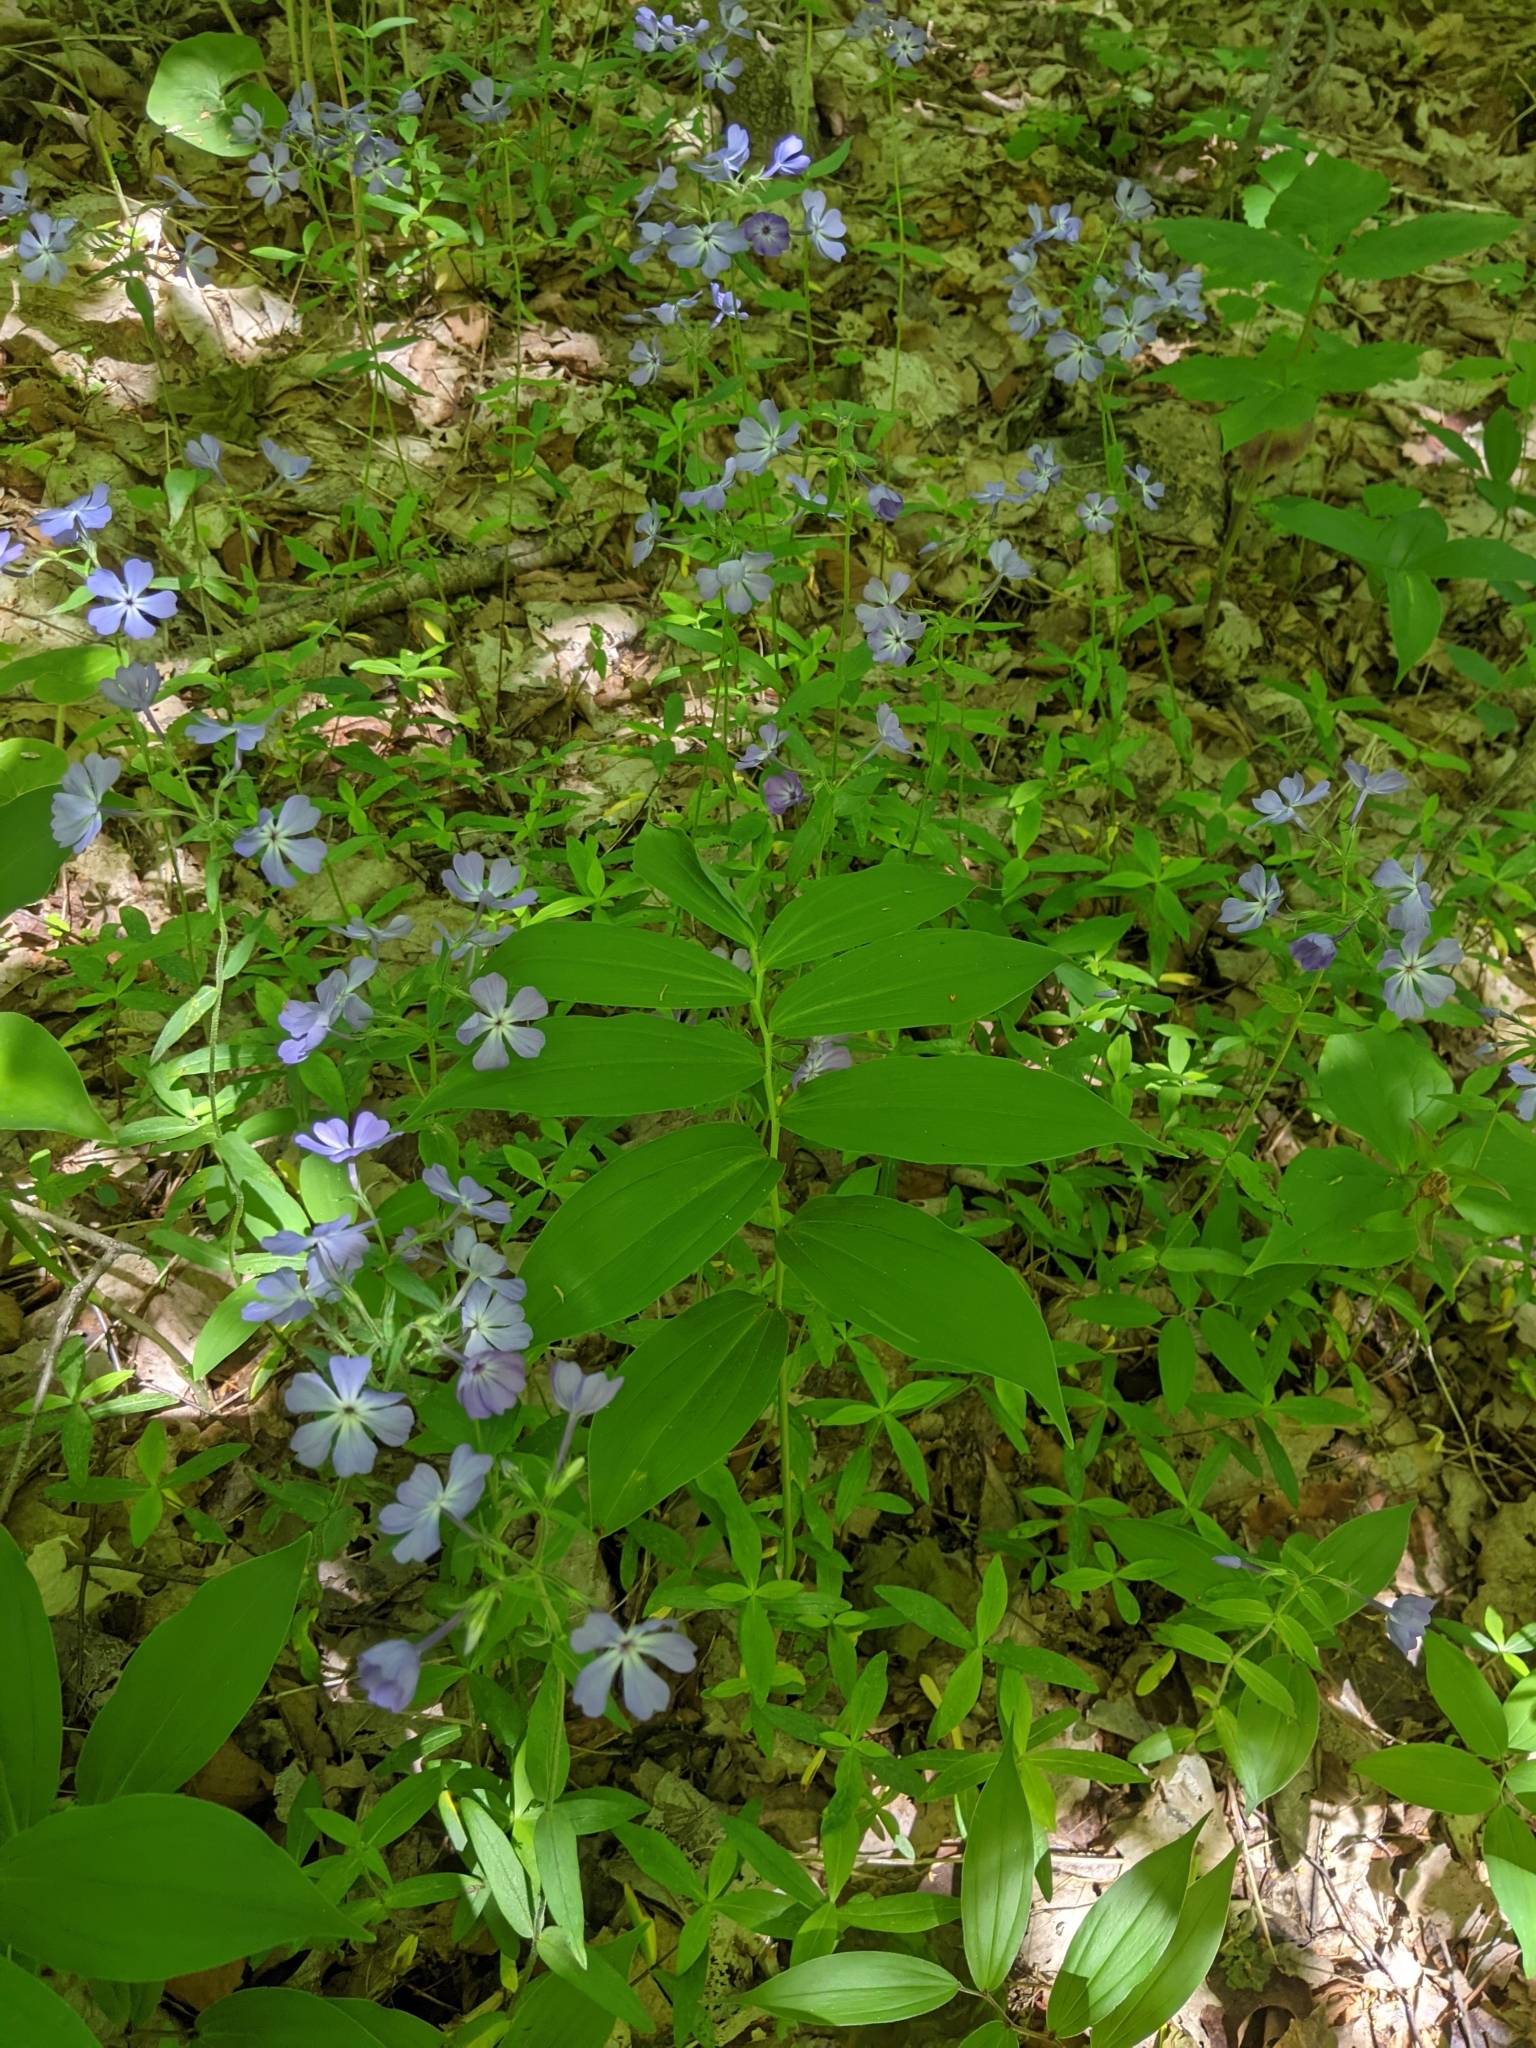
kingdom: Plantae
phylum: Tracheophyta
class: Magnoliopsida
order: Ericales
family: Polemoniaceae
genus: Phlox
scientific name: Phlox divaricata
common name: Blue phlox
